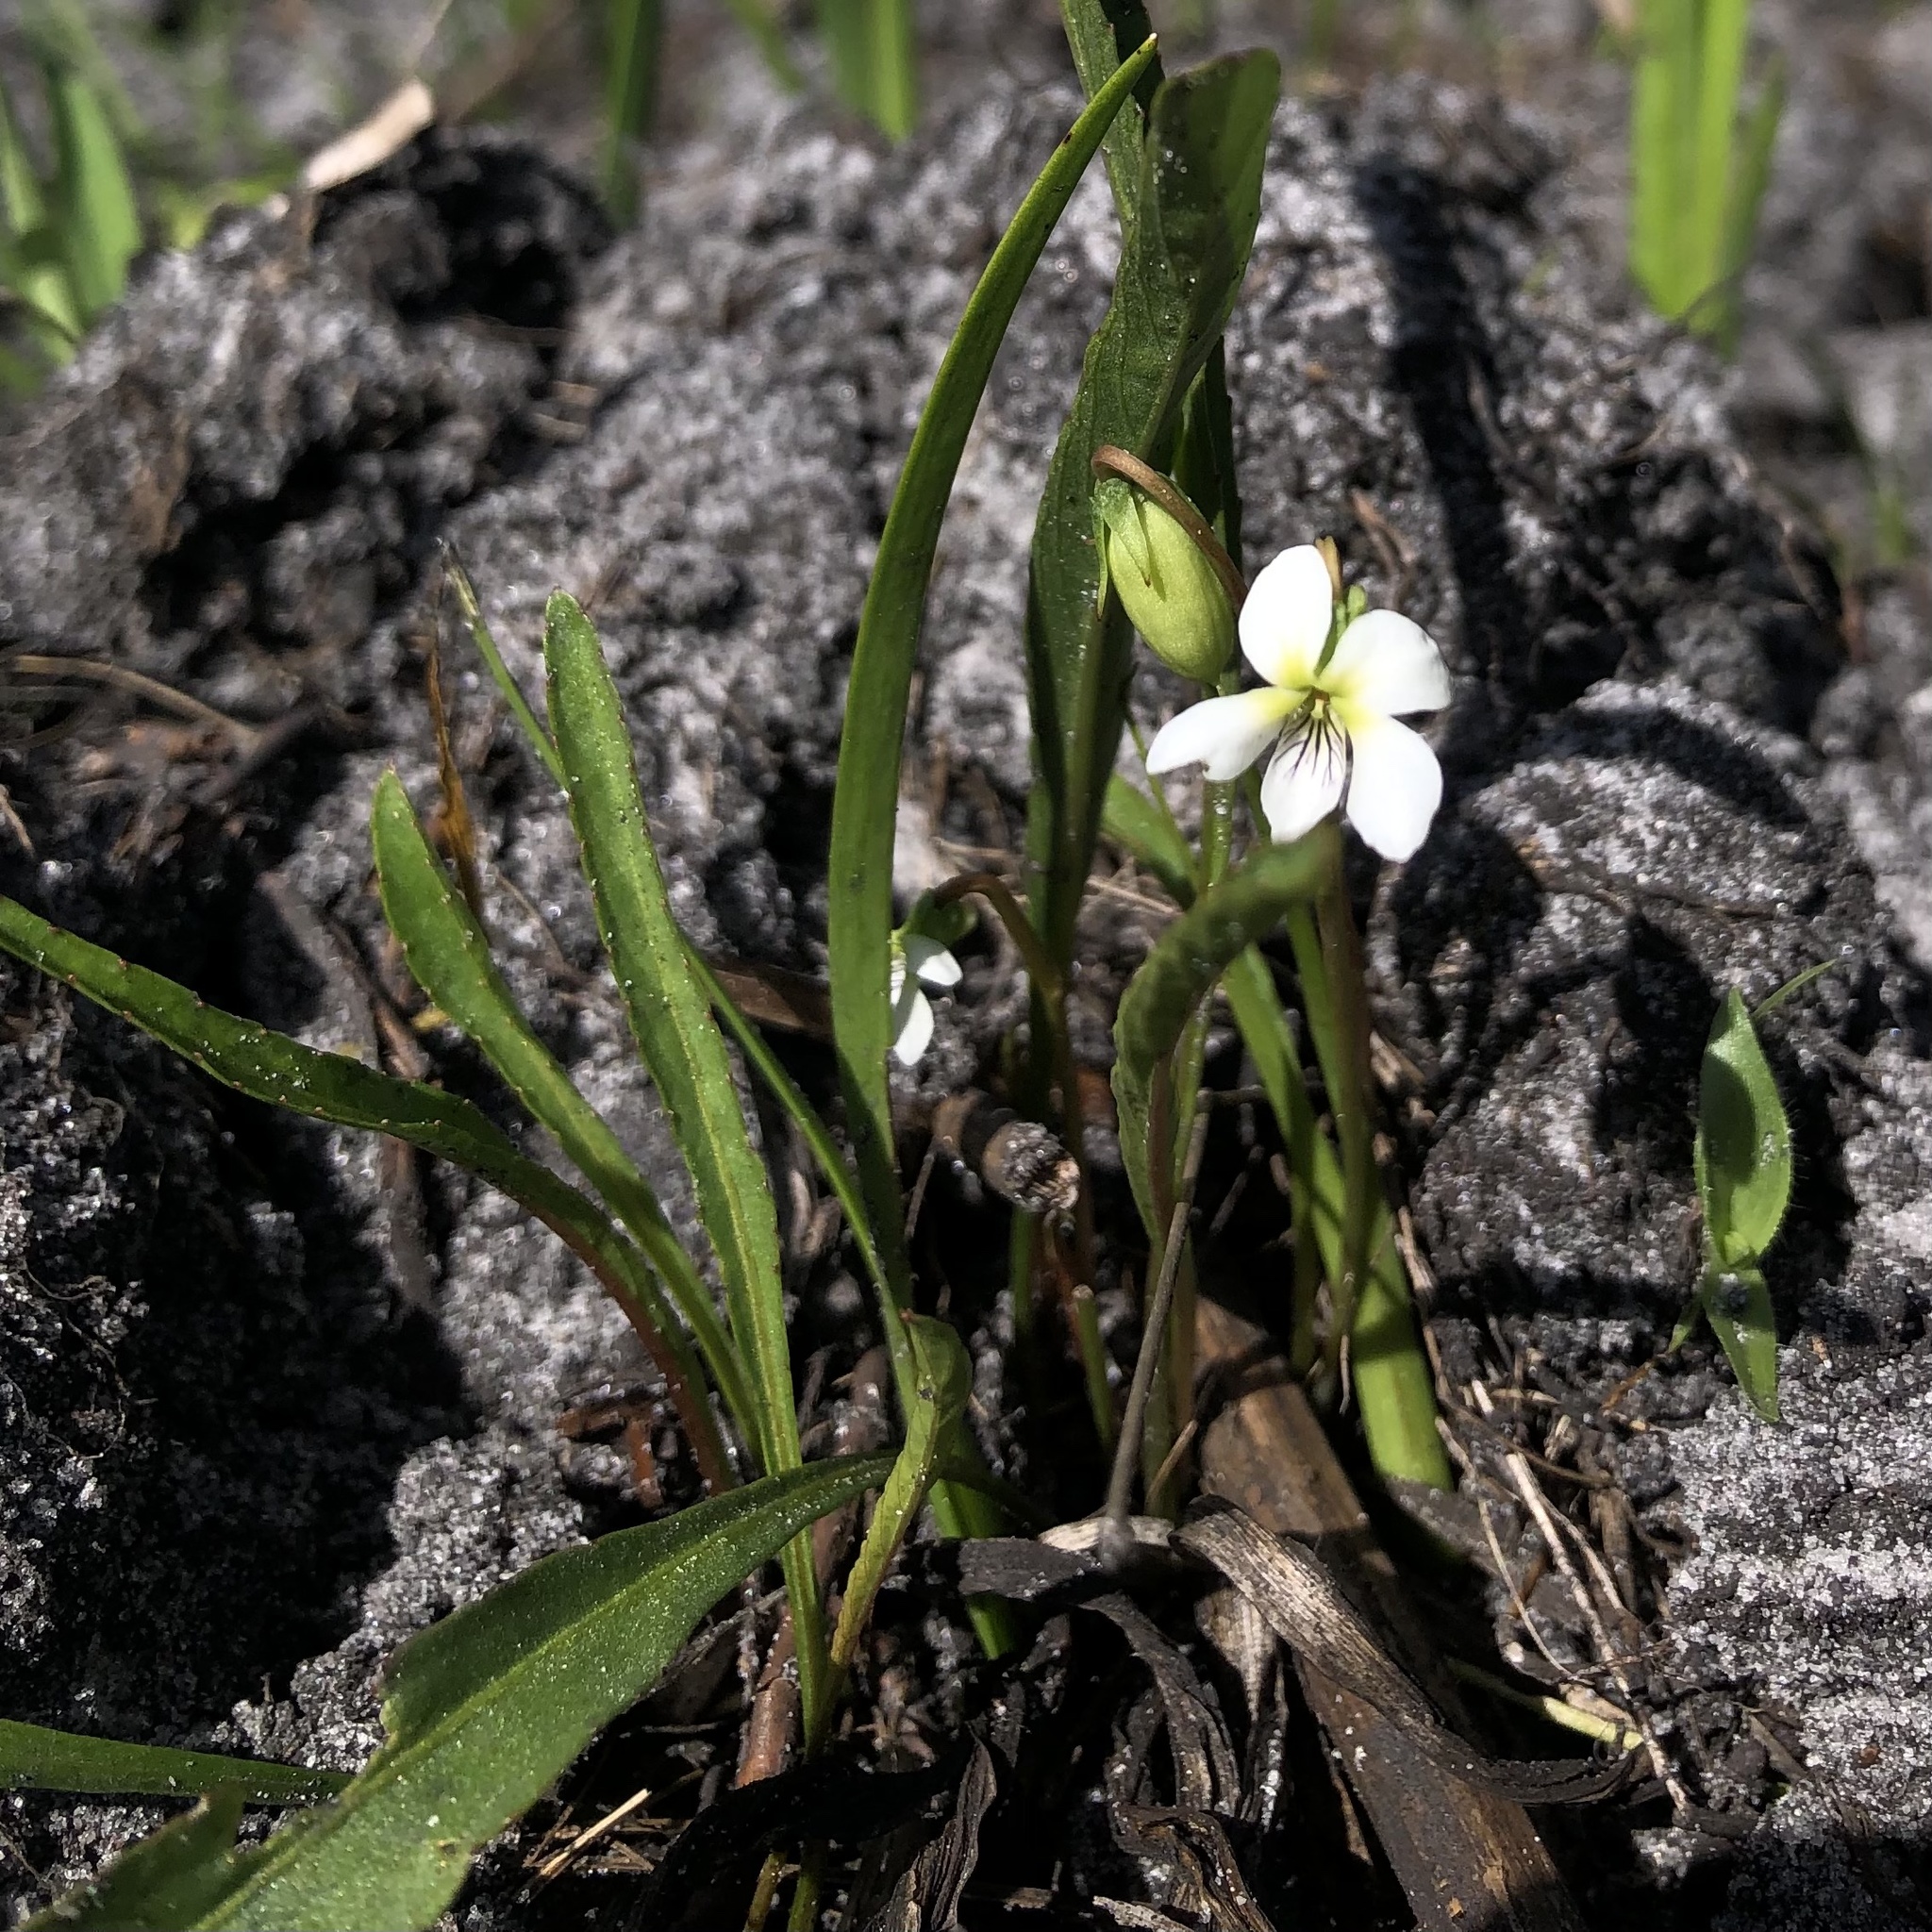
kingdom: Plantae
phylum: Tracheophyta
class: Magnoliopsida
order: Malpighiales
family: Violaceae
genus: Viola
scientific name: Viola vittata
